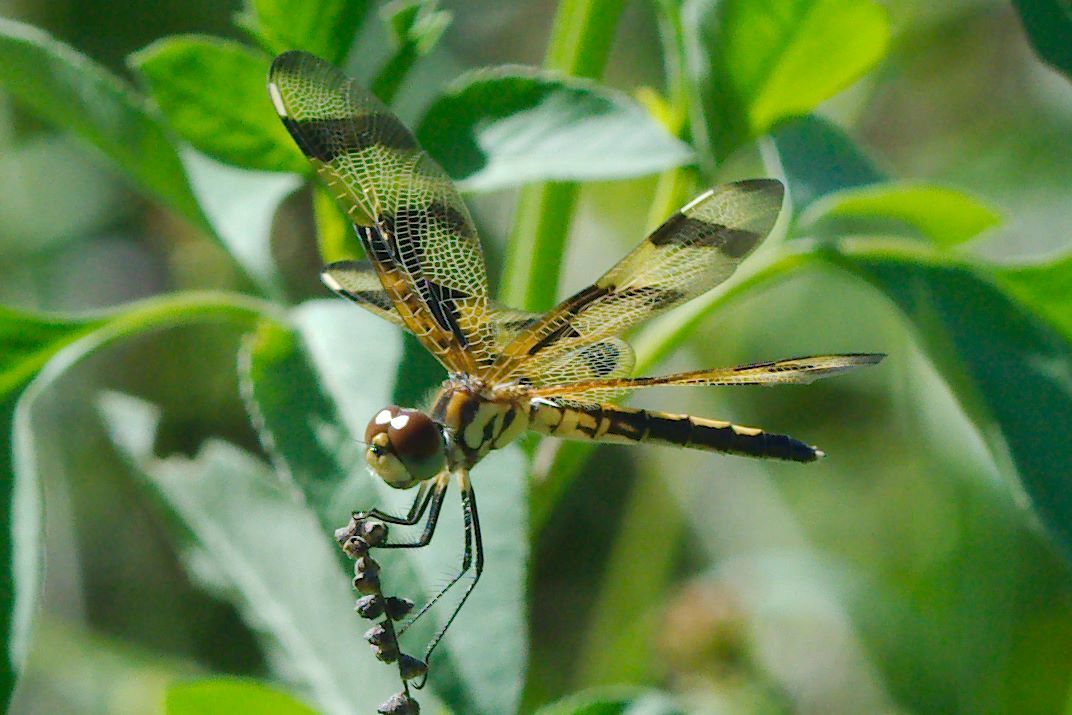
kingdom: Animalia
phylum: Arthropoda
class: Insecta
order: Odonata
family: Libellulidae
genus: Celithemis
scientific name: Celithemis eponina
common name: Halloween pennant
